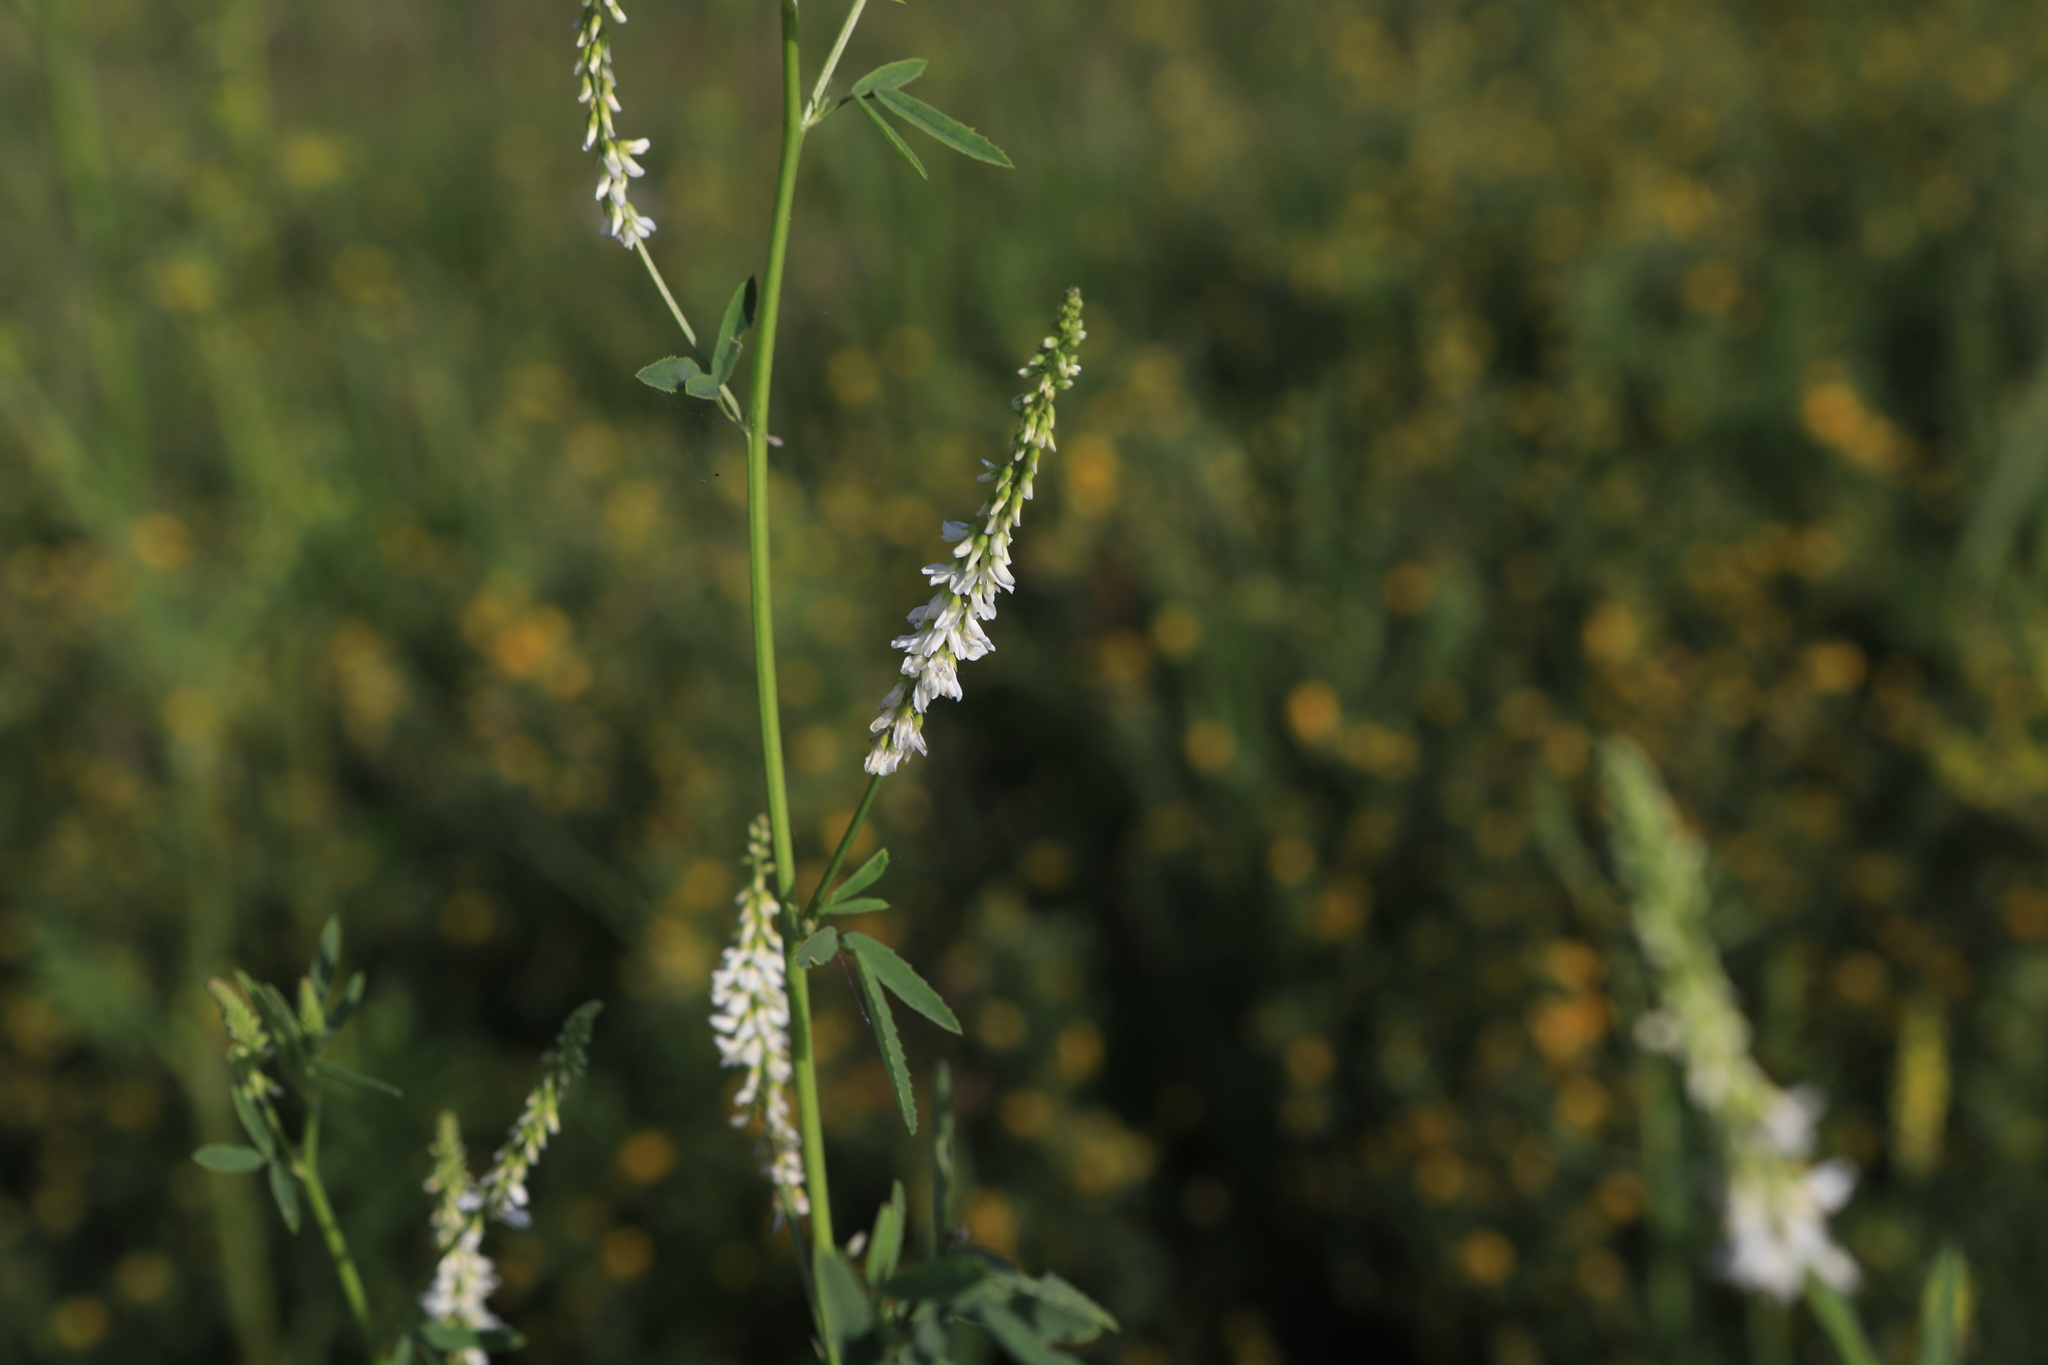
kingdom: Plantae
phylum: Tracheophyta
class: Magnoliopsida
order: Fabales
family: Fabaceae
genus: Melilotus
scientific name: Melilotus albus
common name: White melilot
